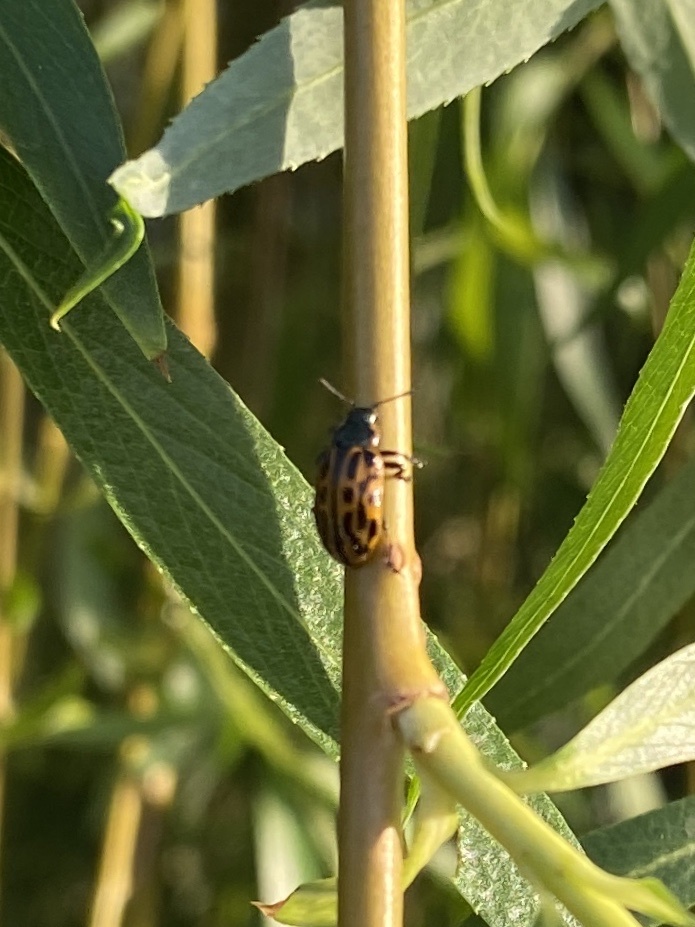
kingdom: Animalia
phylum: Arthropoda
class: Insecta
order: Coleoptera
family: Chrysomelidae
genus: Chrysomela
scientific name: Chrysomela vigintipunctata
